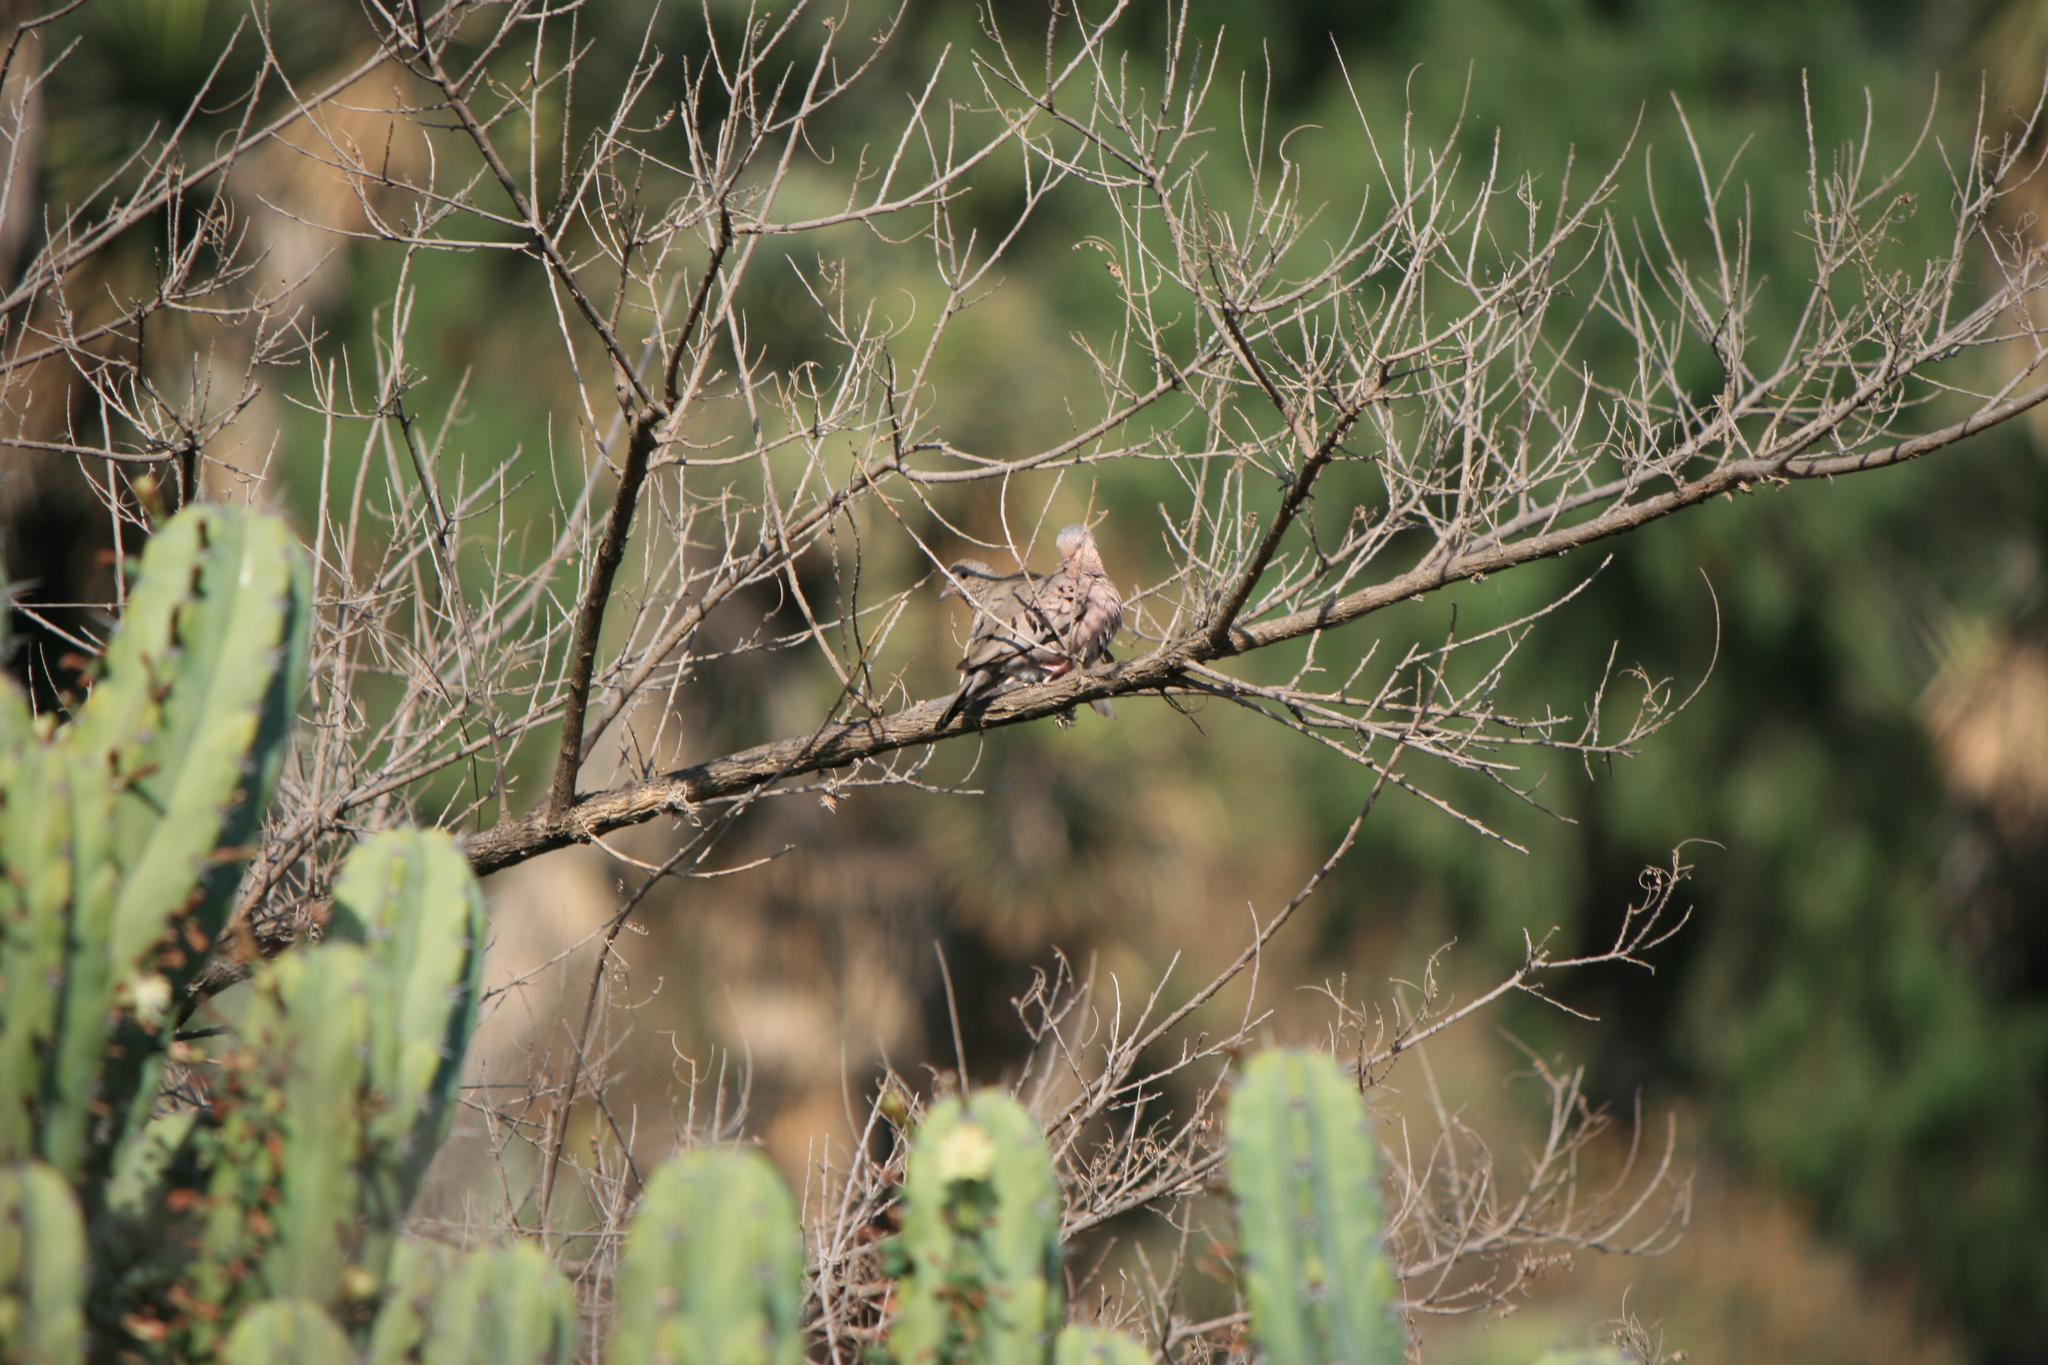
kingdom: Animalia
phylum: Chordata
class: Aves
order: Columbiformes
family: Columbidae
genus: Columbina
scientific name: Columbina passerina
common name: Common ground-dove
